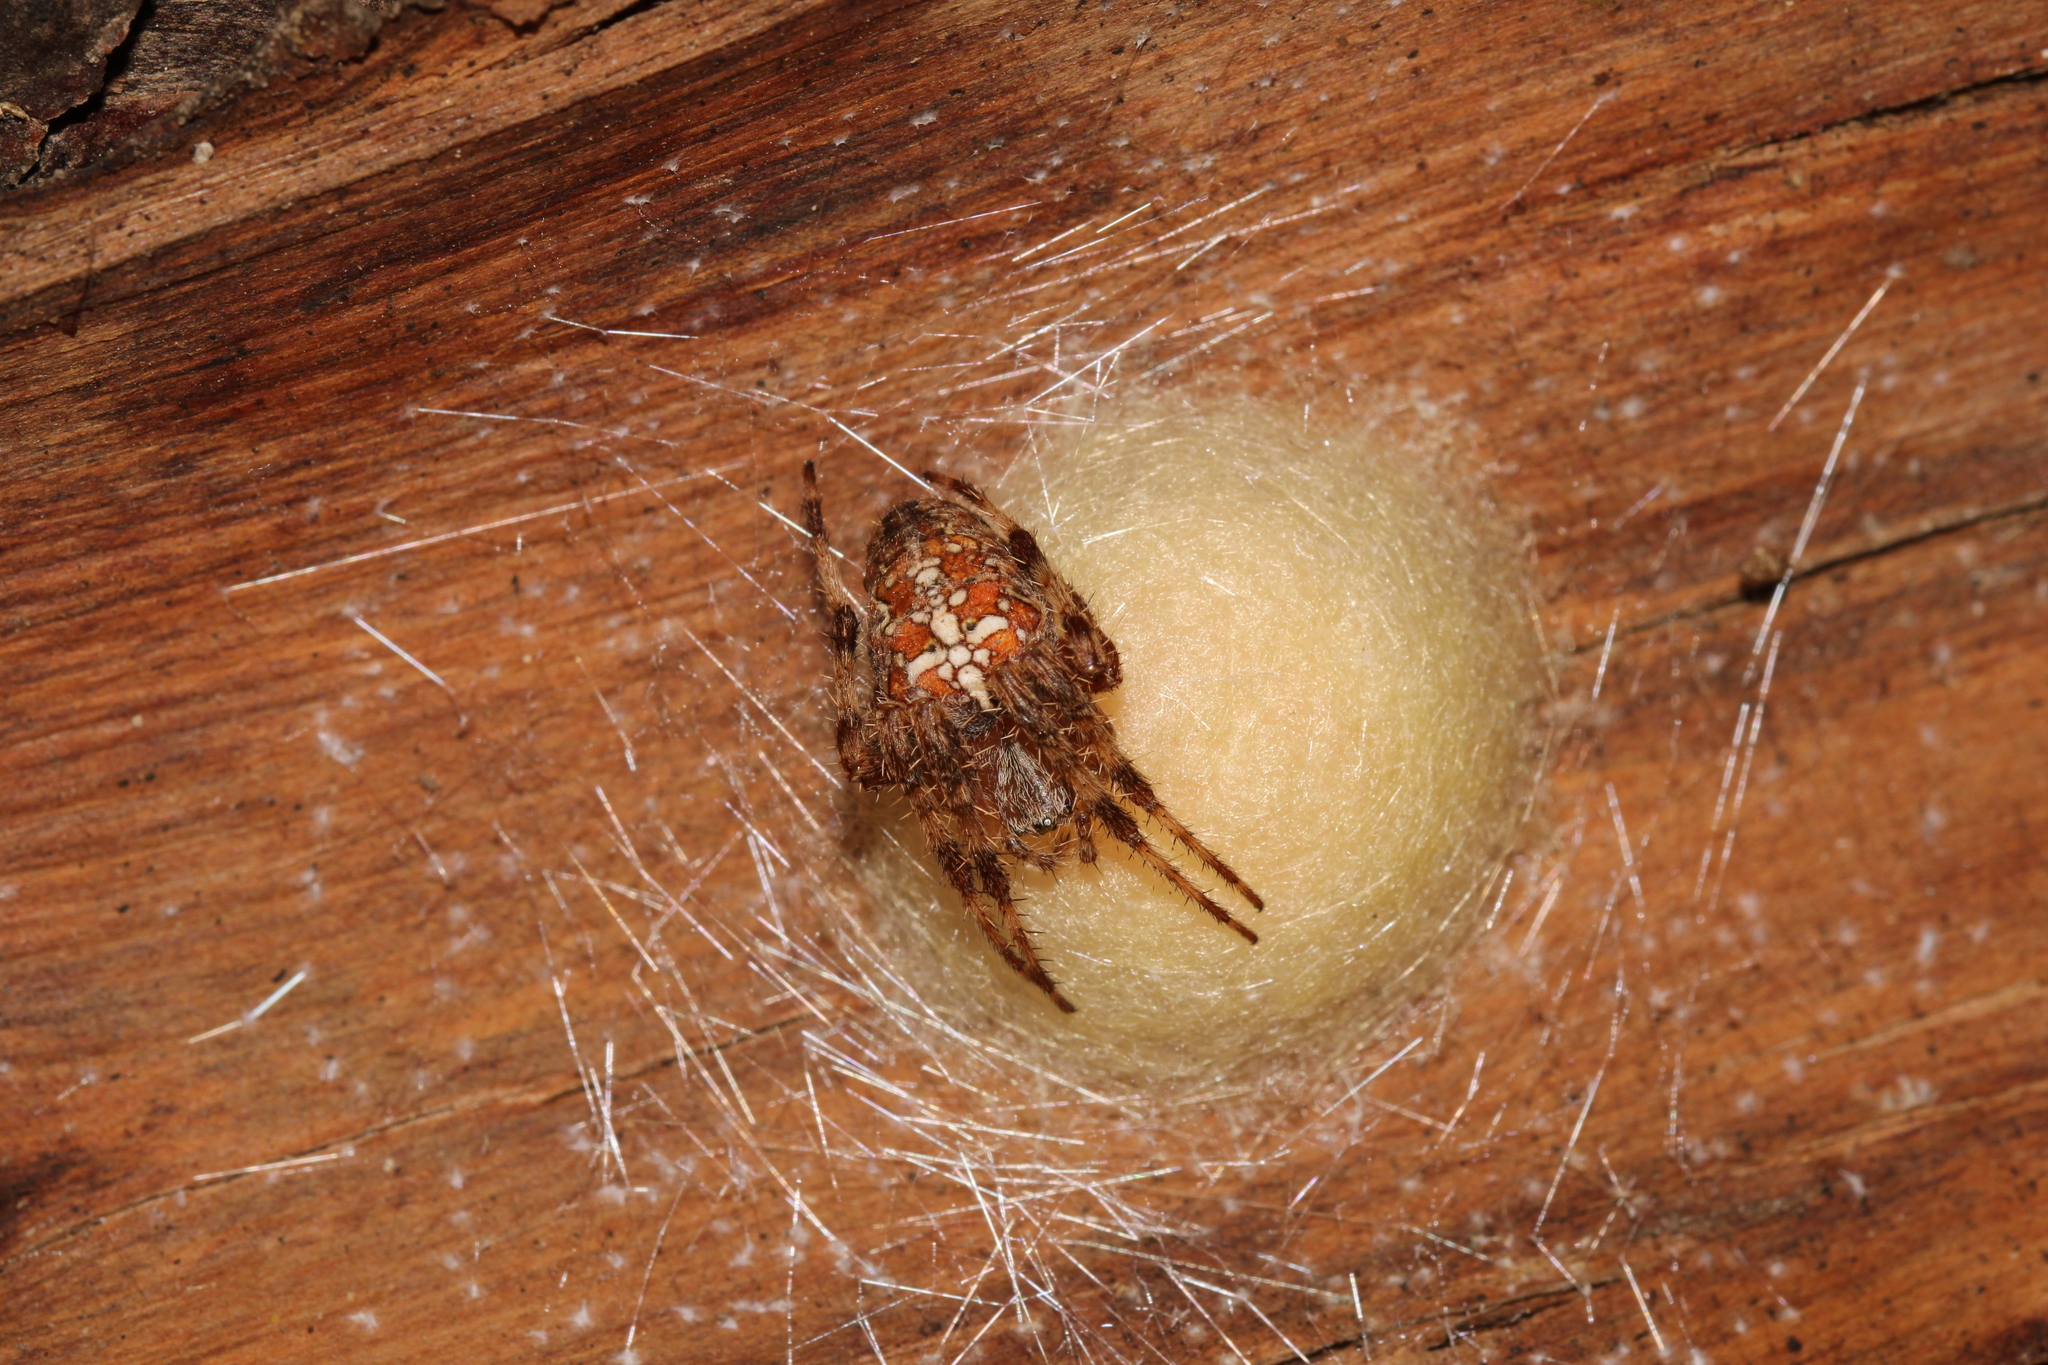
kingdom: Animalia
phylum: Arthropoda
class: Arachnida
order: Araneae
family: Araneidae
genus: Araneus
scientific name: Araneus diadematus
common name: Cross orbweaver
